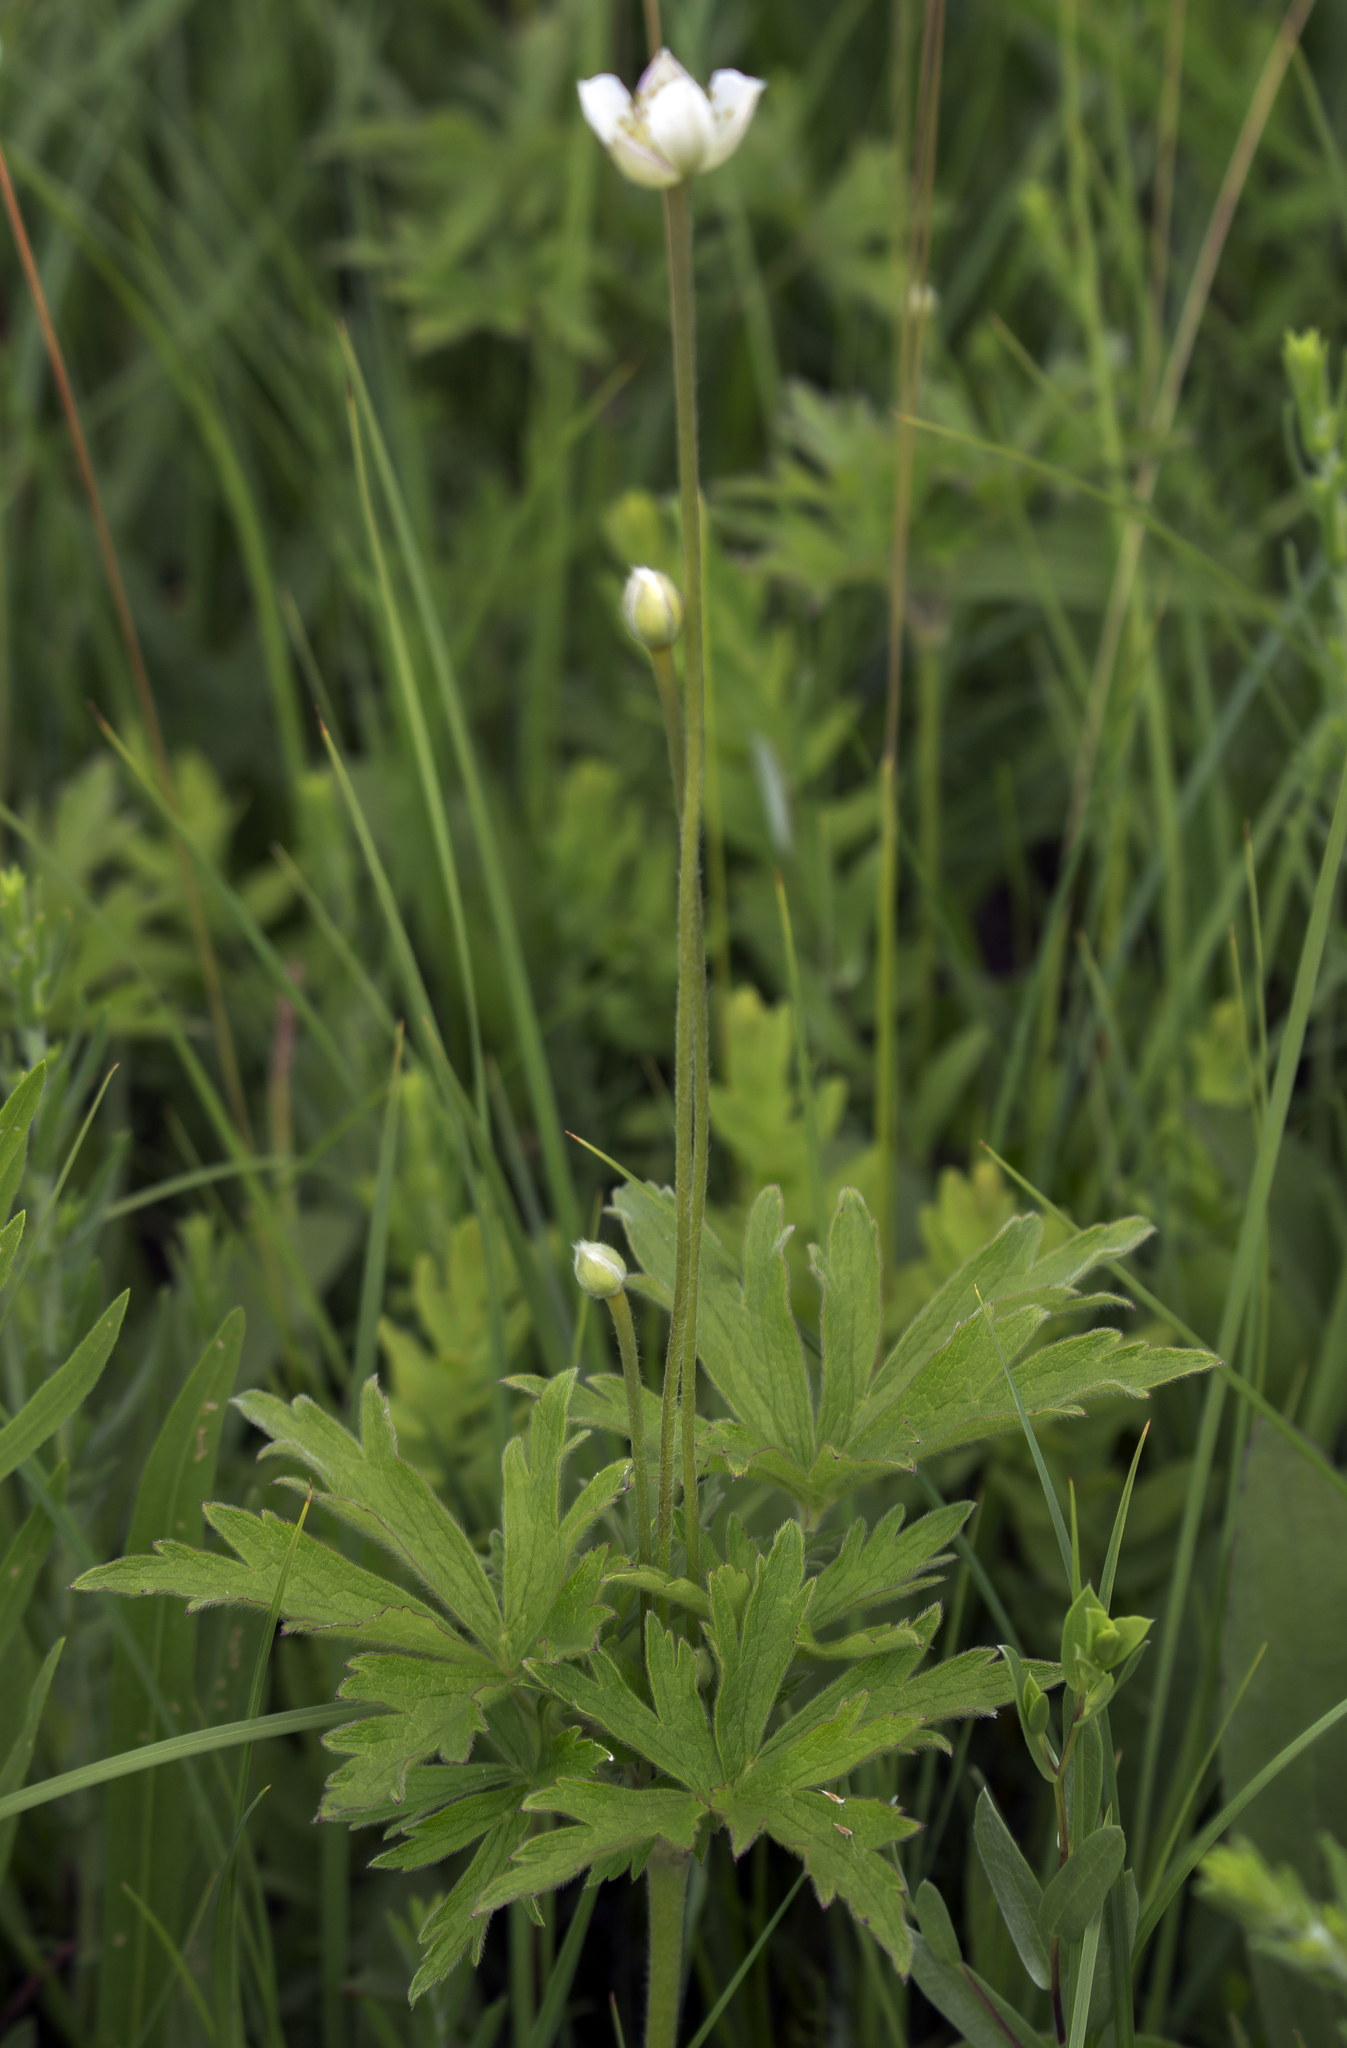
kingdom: Plantae
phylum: Tracheophyta
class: Magnoliopsida
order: Ranunculales
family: Ranunculaceae
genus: Anemone
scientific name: Anemone cylindrica
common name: Candle anemone
